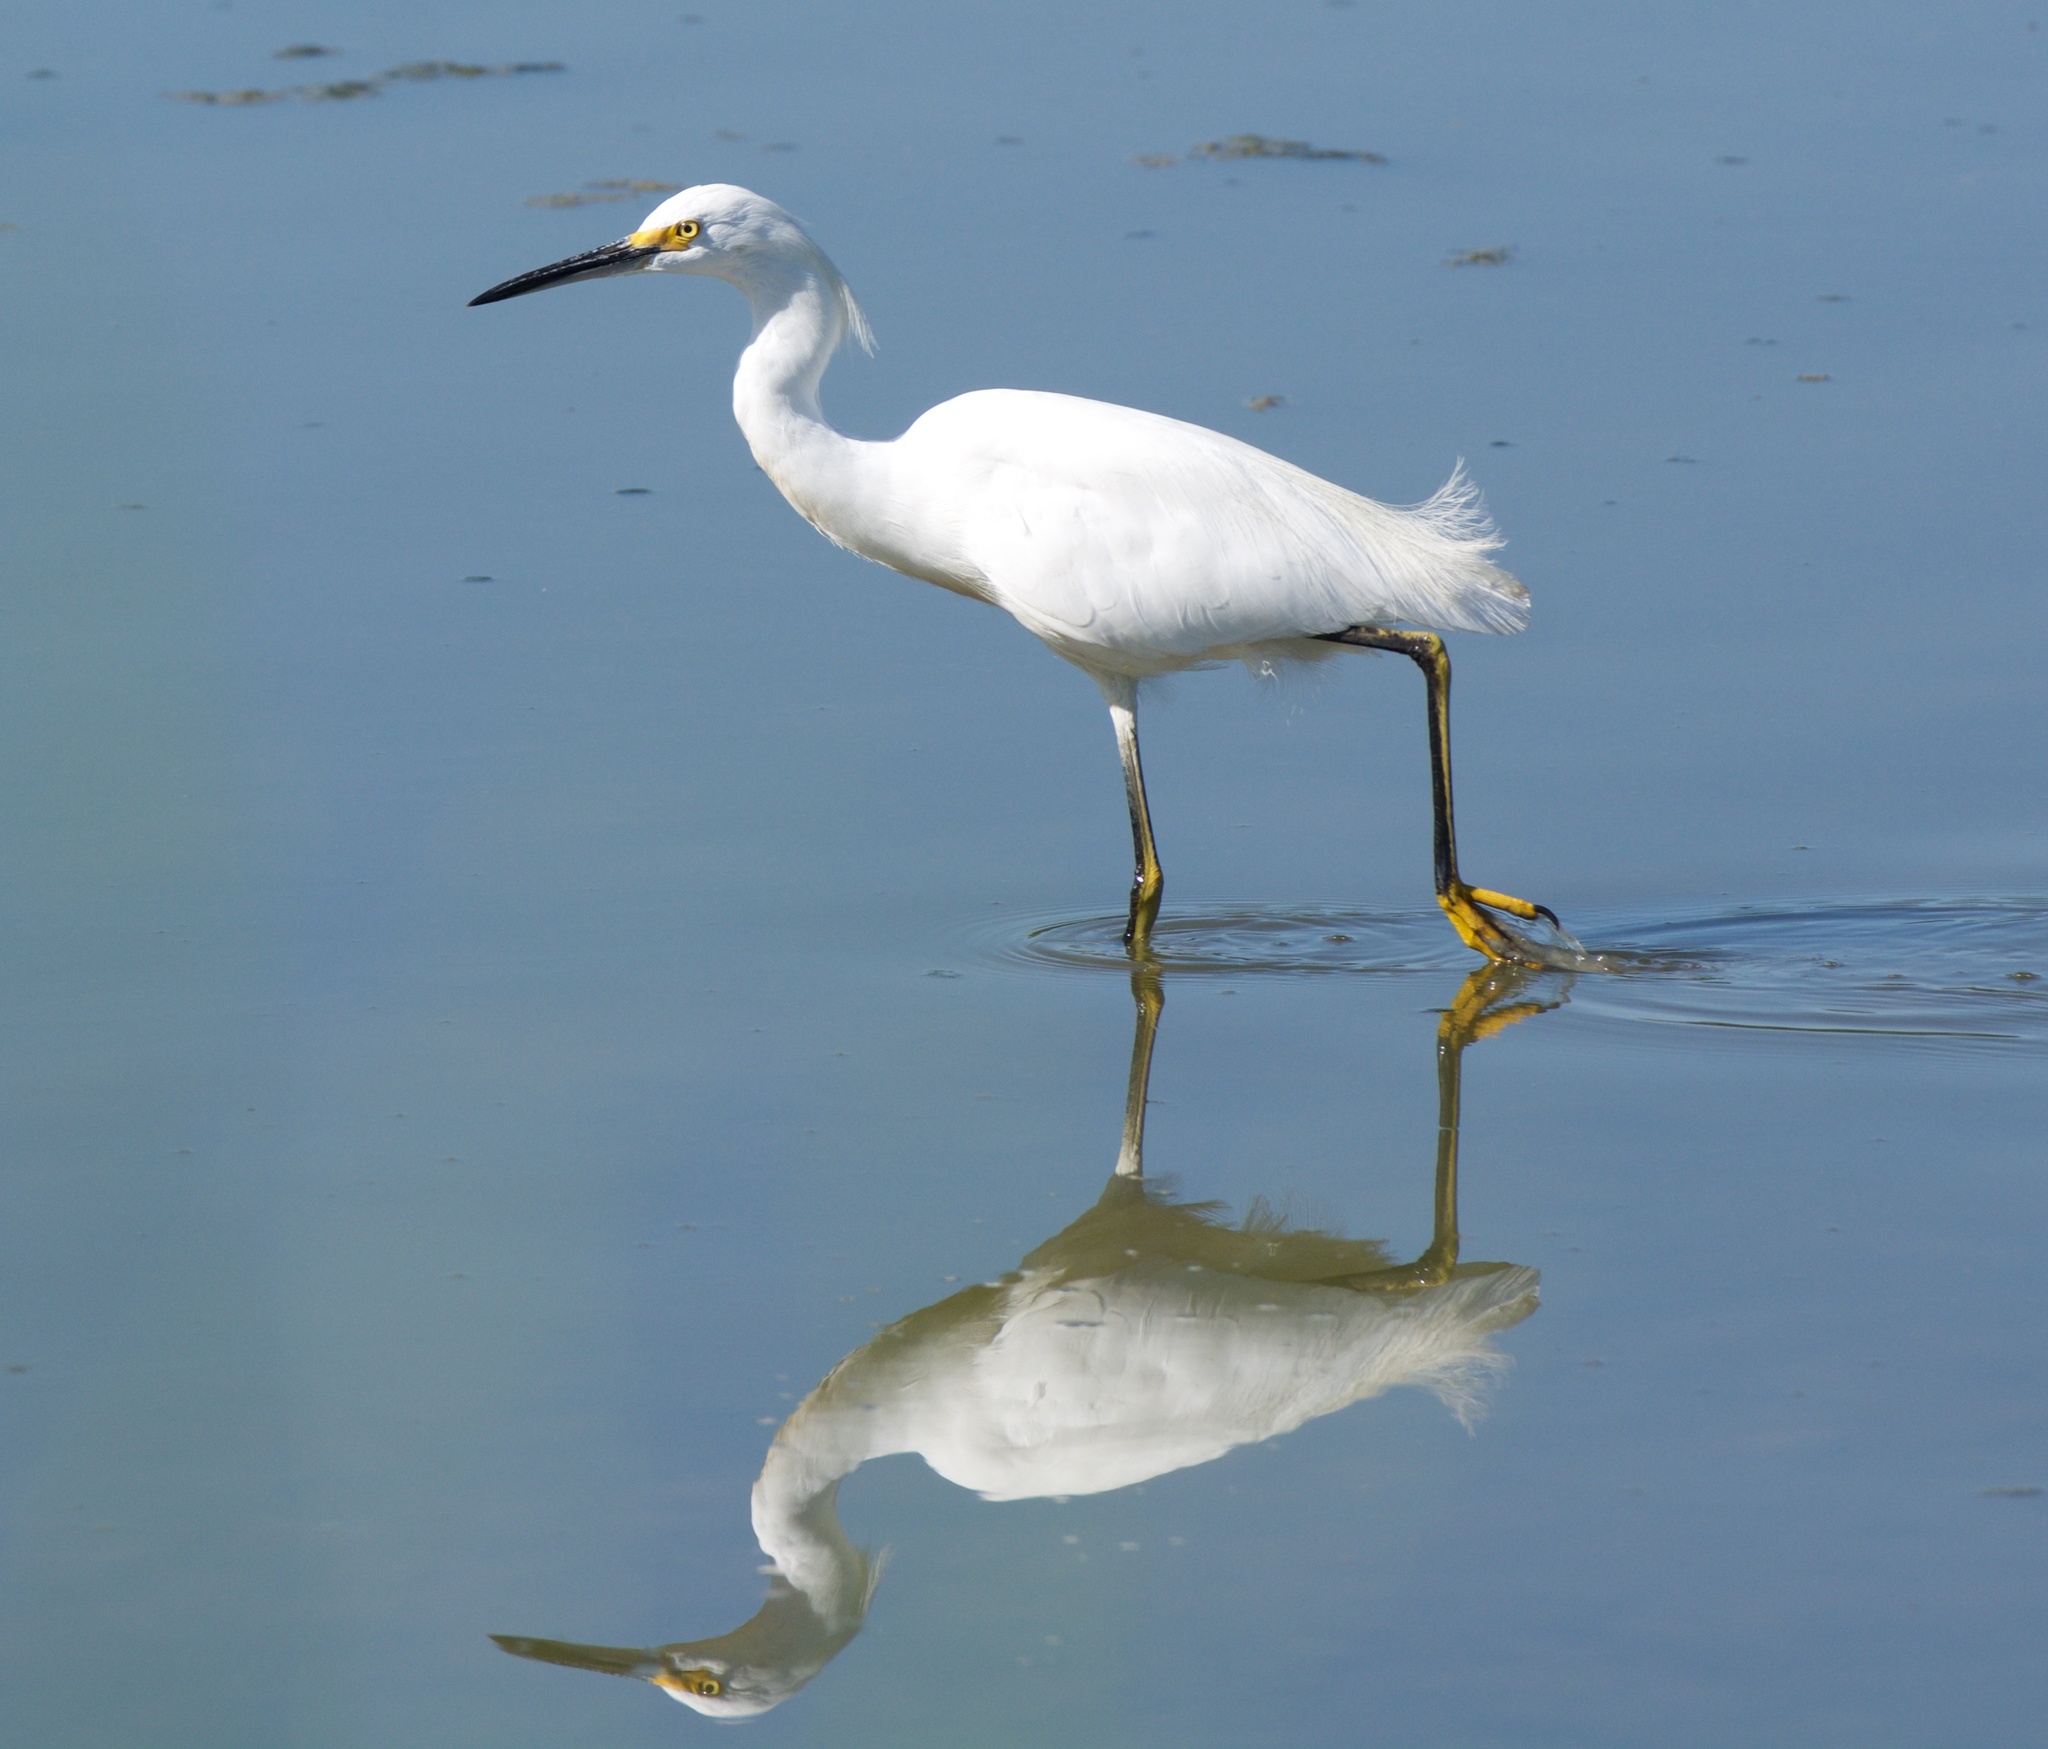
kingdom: Animalia
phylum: Chordata
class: Aves
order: Pelecaniformes
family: Ardeidae
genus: Egretta
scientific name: Egretta thula
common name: Snowy egret
